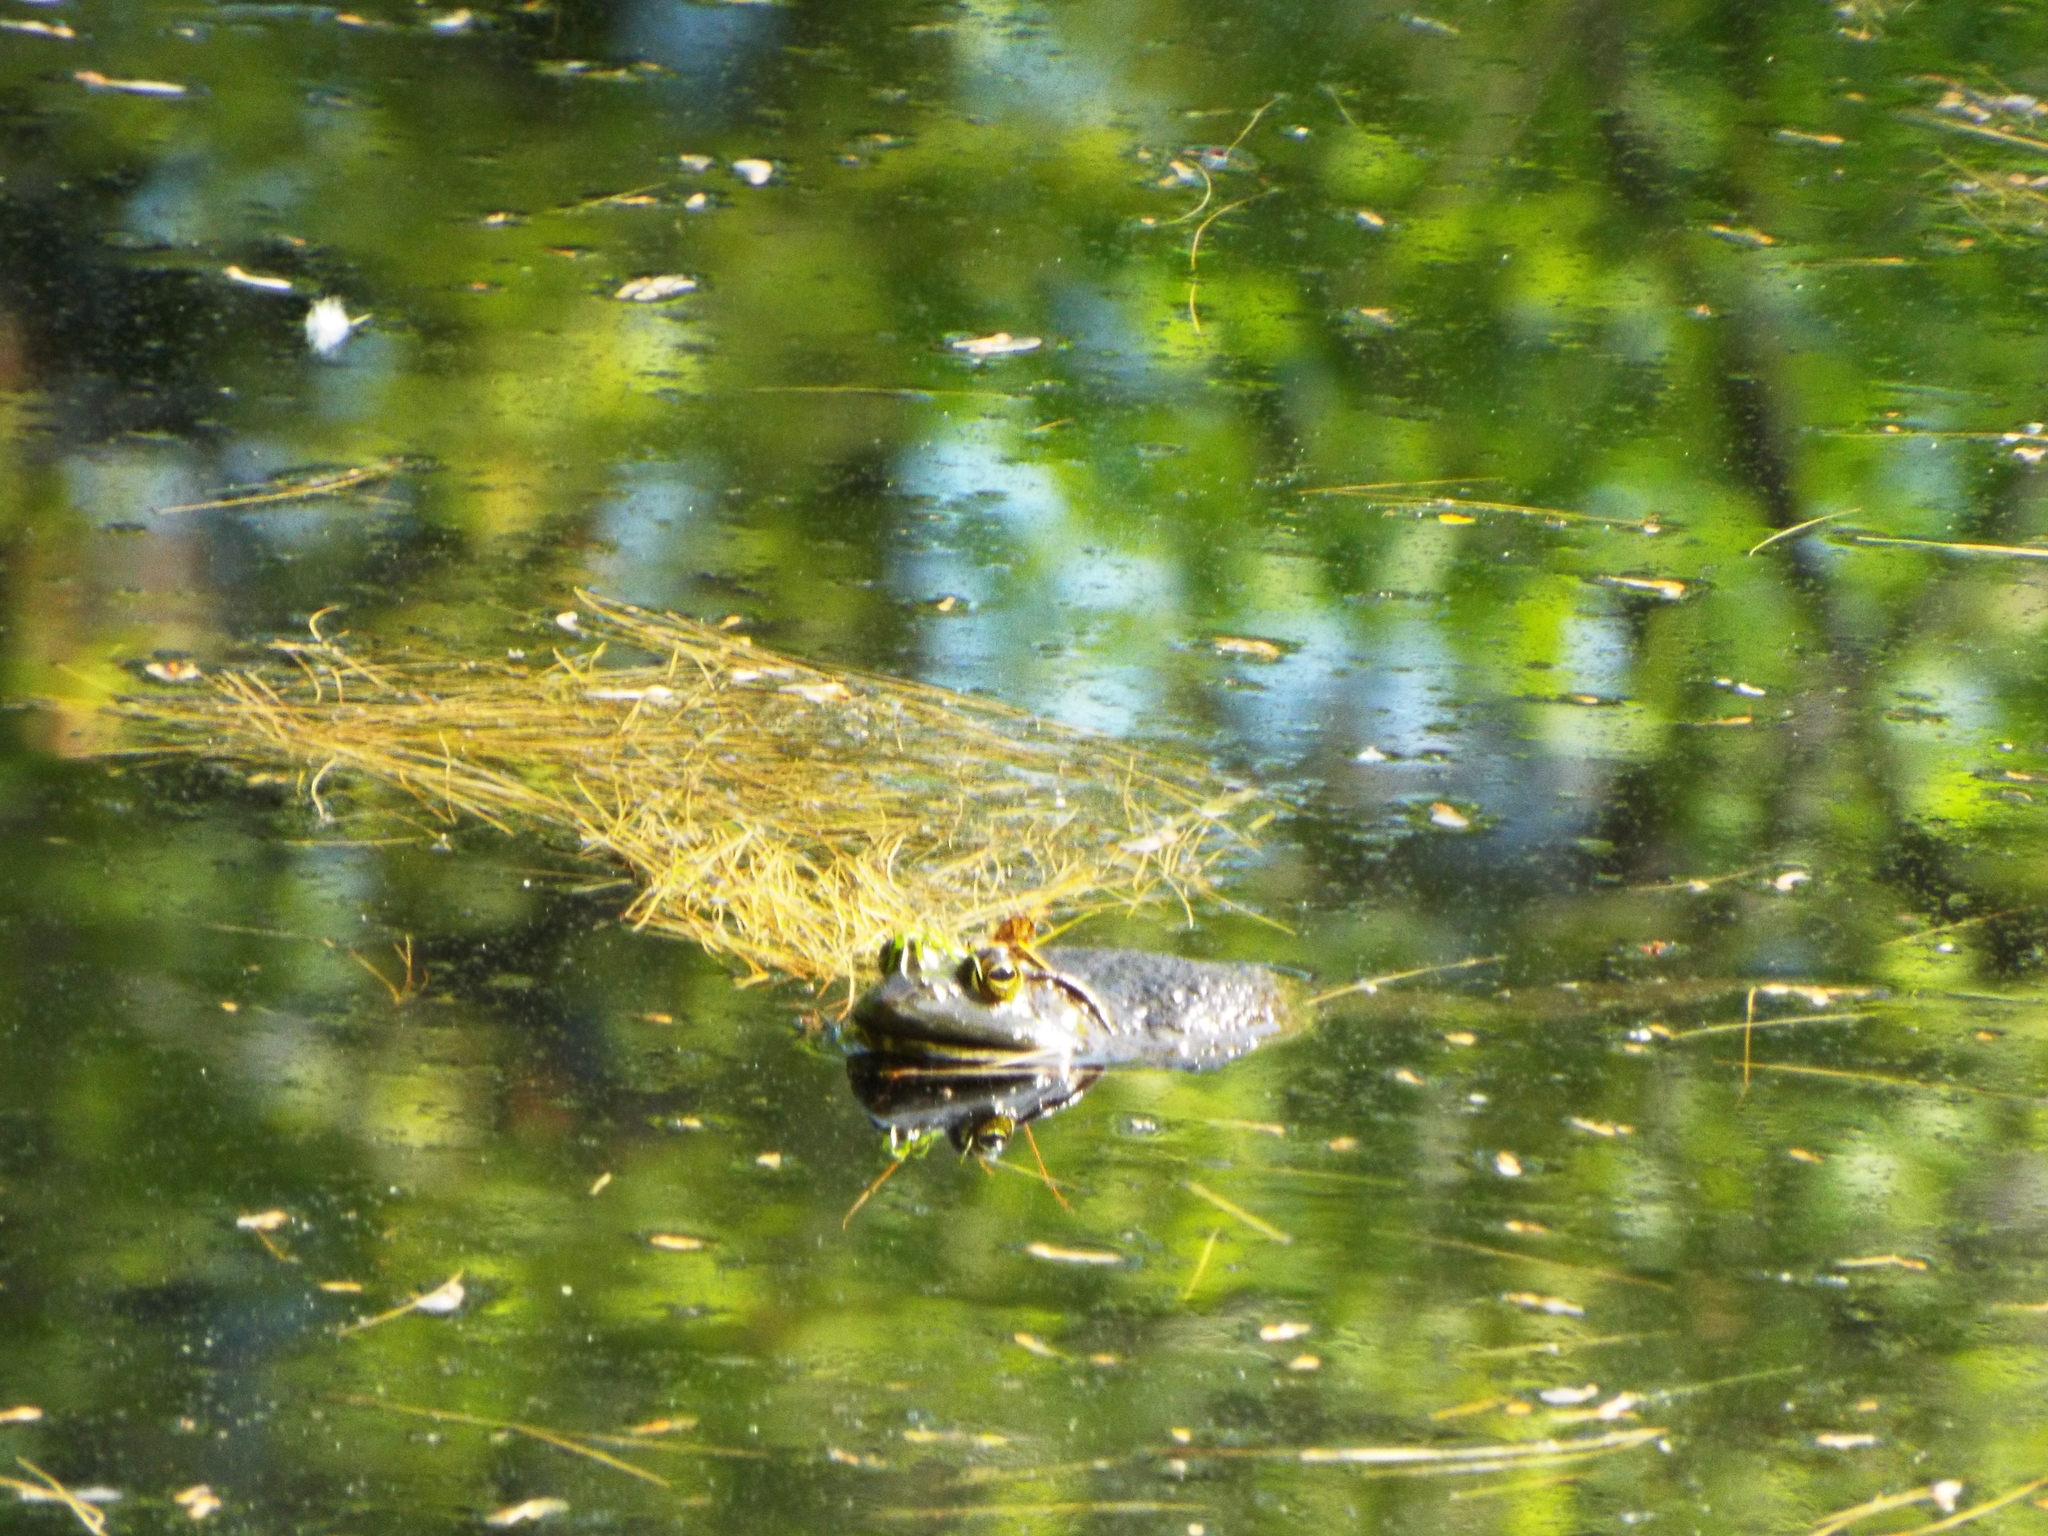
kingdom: Animalia
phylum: Chordata
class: Amphibia
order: Anura
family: Ranidae
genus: Lithobates
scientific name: Lithobates catesbeianus
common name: American bullfrog
